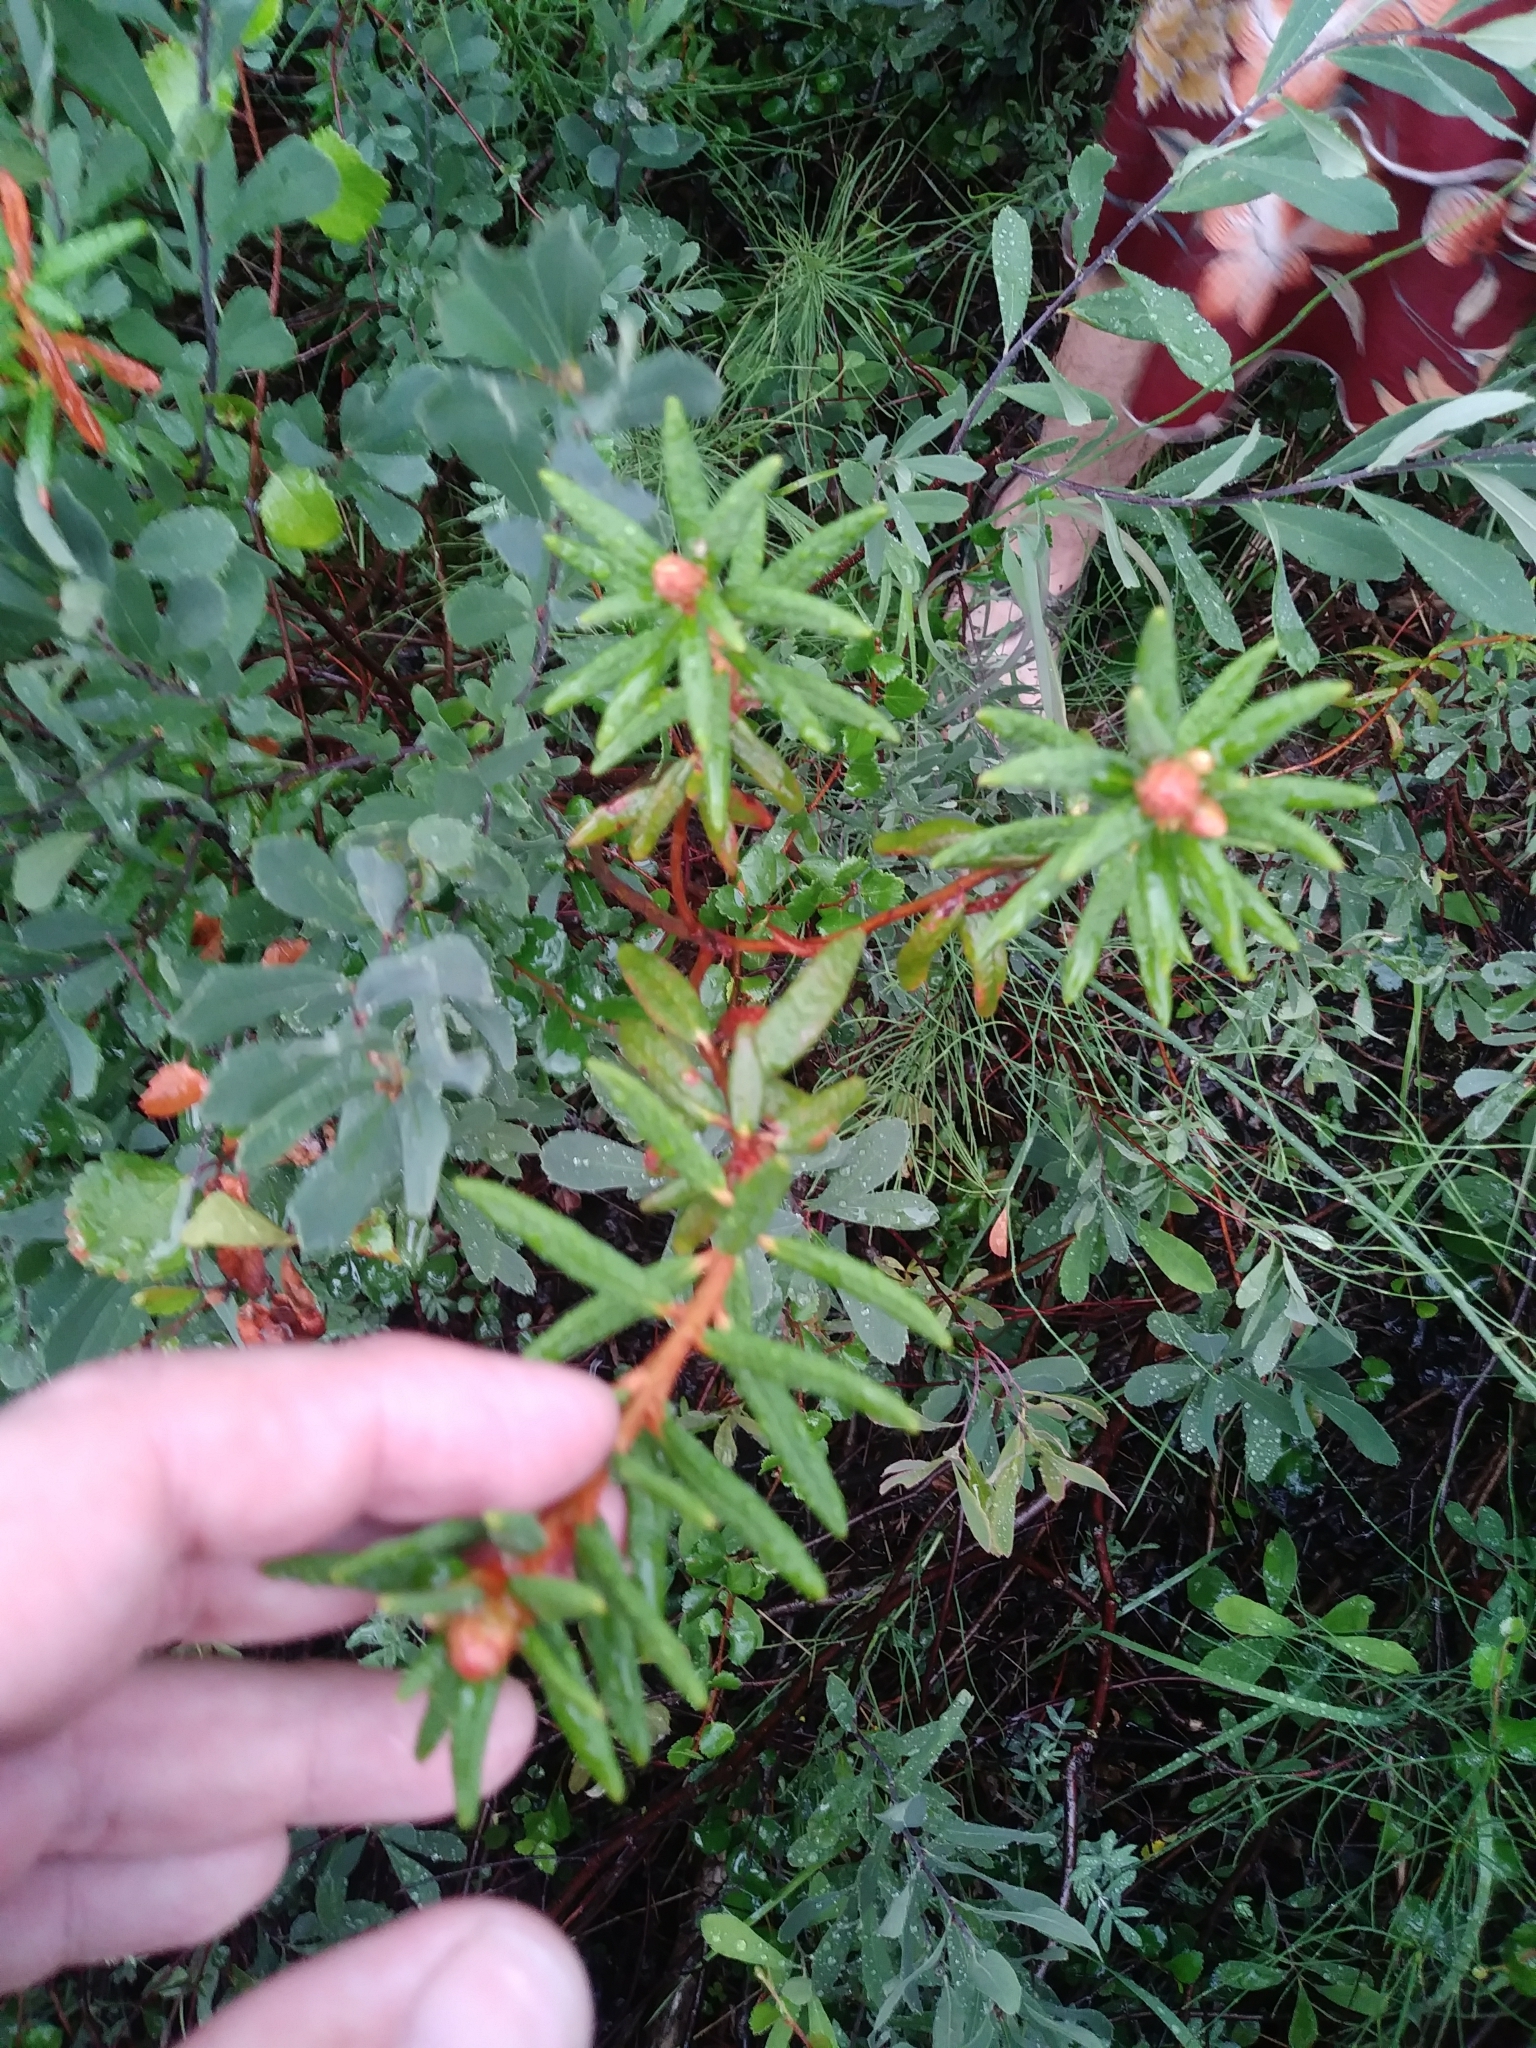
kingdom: Plantae
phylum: Tracheophyta
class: Magnoliopsida
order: Ericales
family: Ericaceae
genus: Rhododendron
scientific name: Rhododendron groenlandicum
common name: Bog labrador tea
